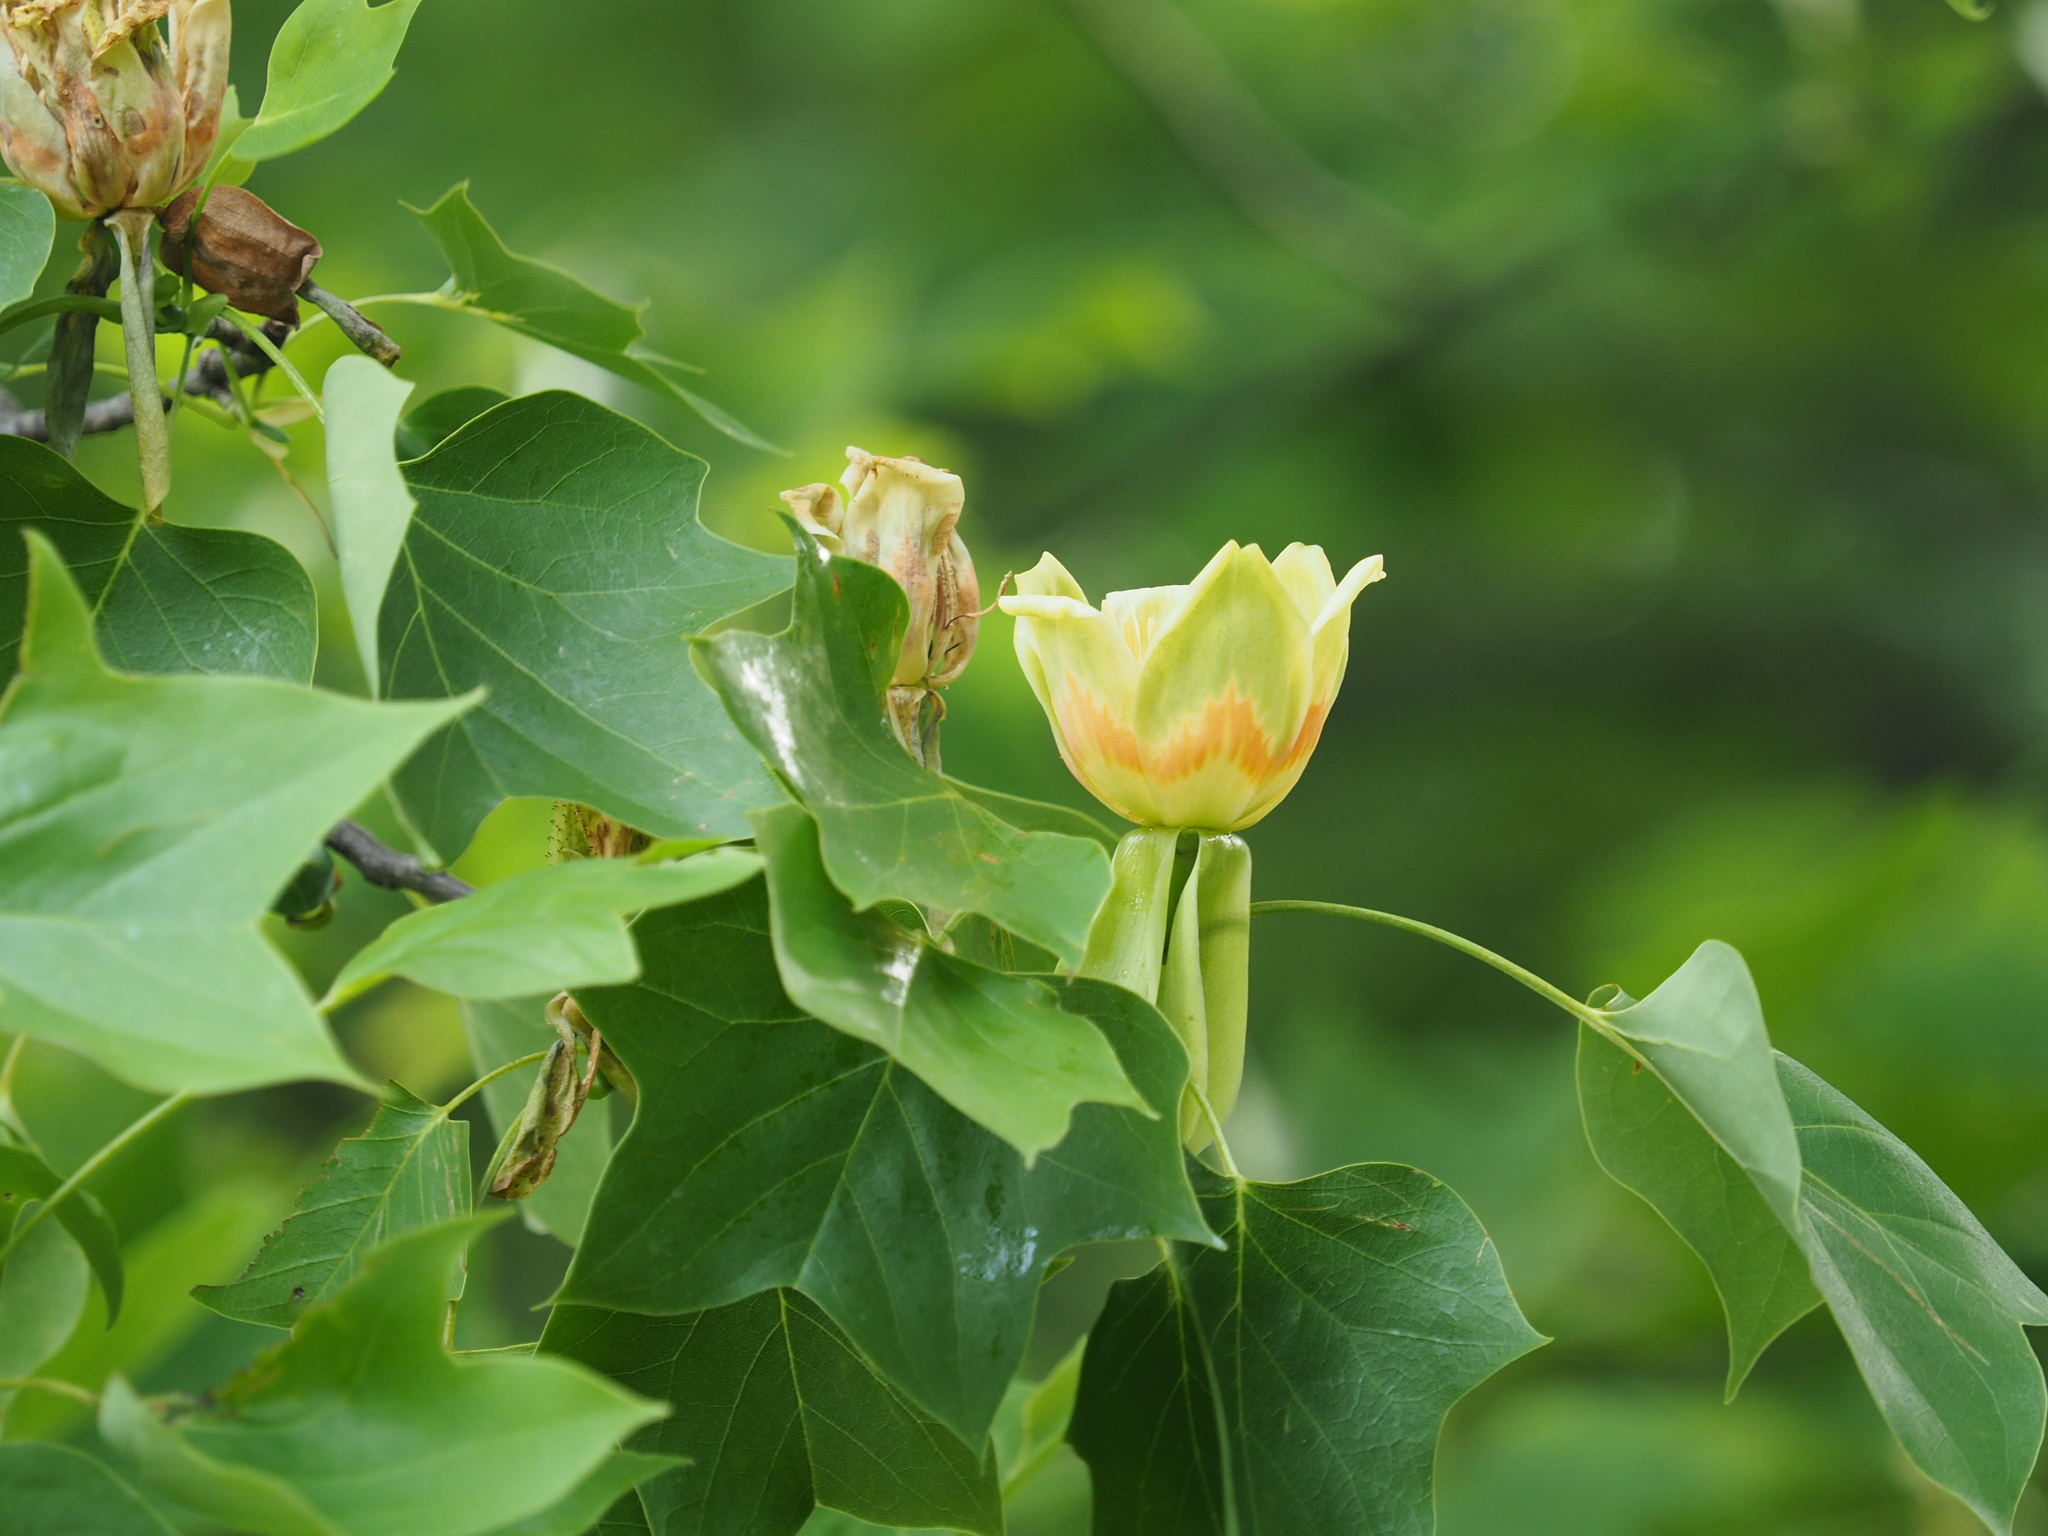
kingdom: Plantae
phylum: Tracheophyta
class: Magnoliopsida
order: Magnoliales
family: Magnoliaceae
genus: Liriodendron
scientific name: Liriodendron tulipifera
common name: Tulip tree
